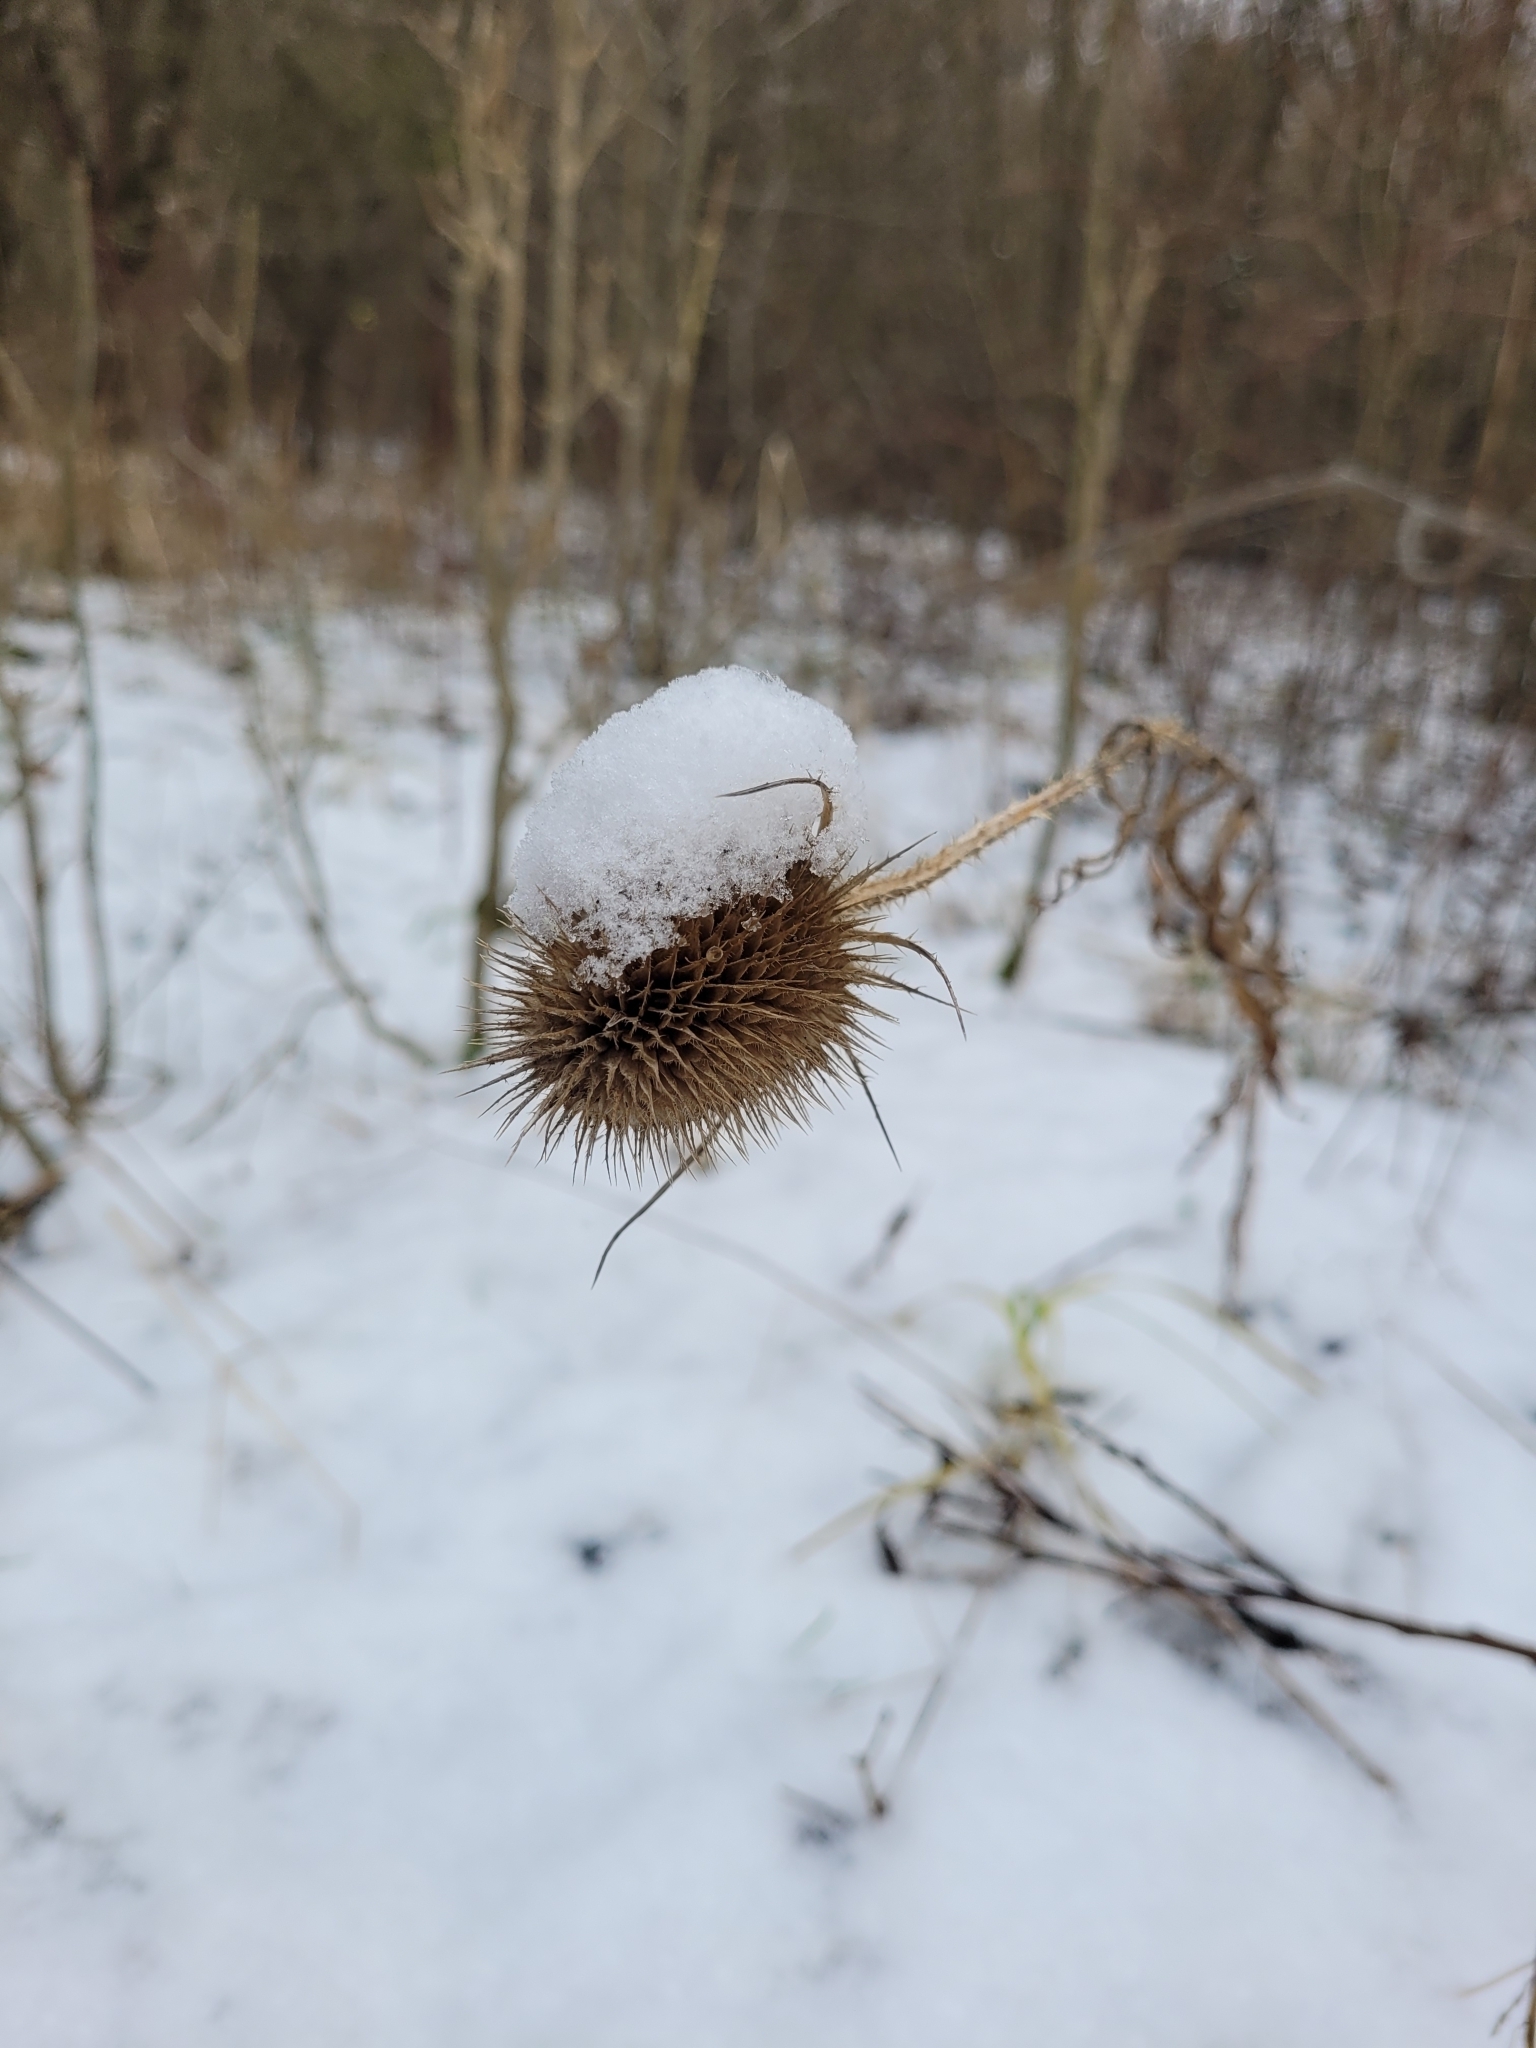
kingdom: Plantae
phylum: Tracheophyta
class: Magnoliopsida
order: Dipsacales
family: Caprifoliaceae
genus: Dipsacus
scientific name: Dipsacus fullonum
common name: Teasel
